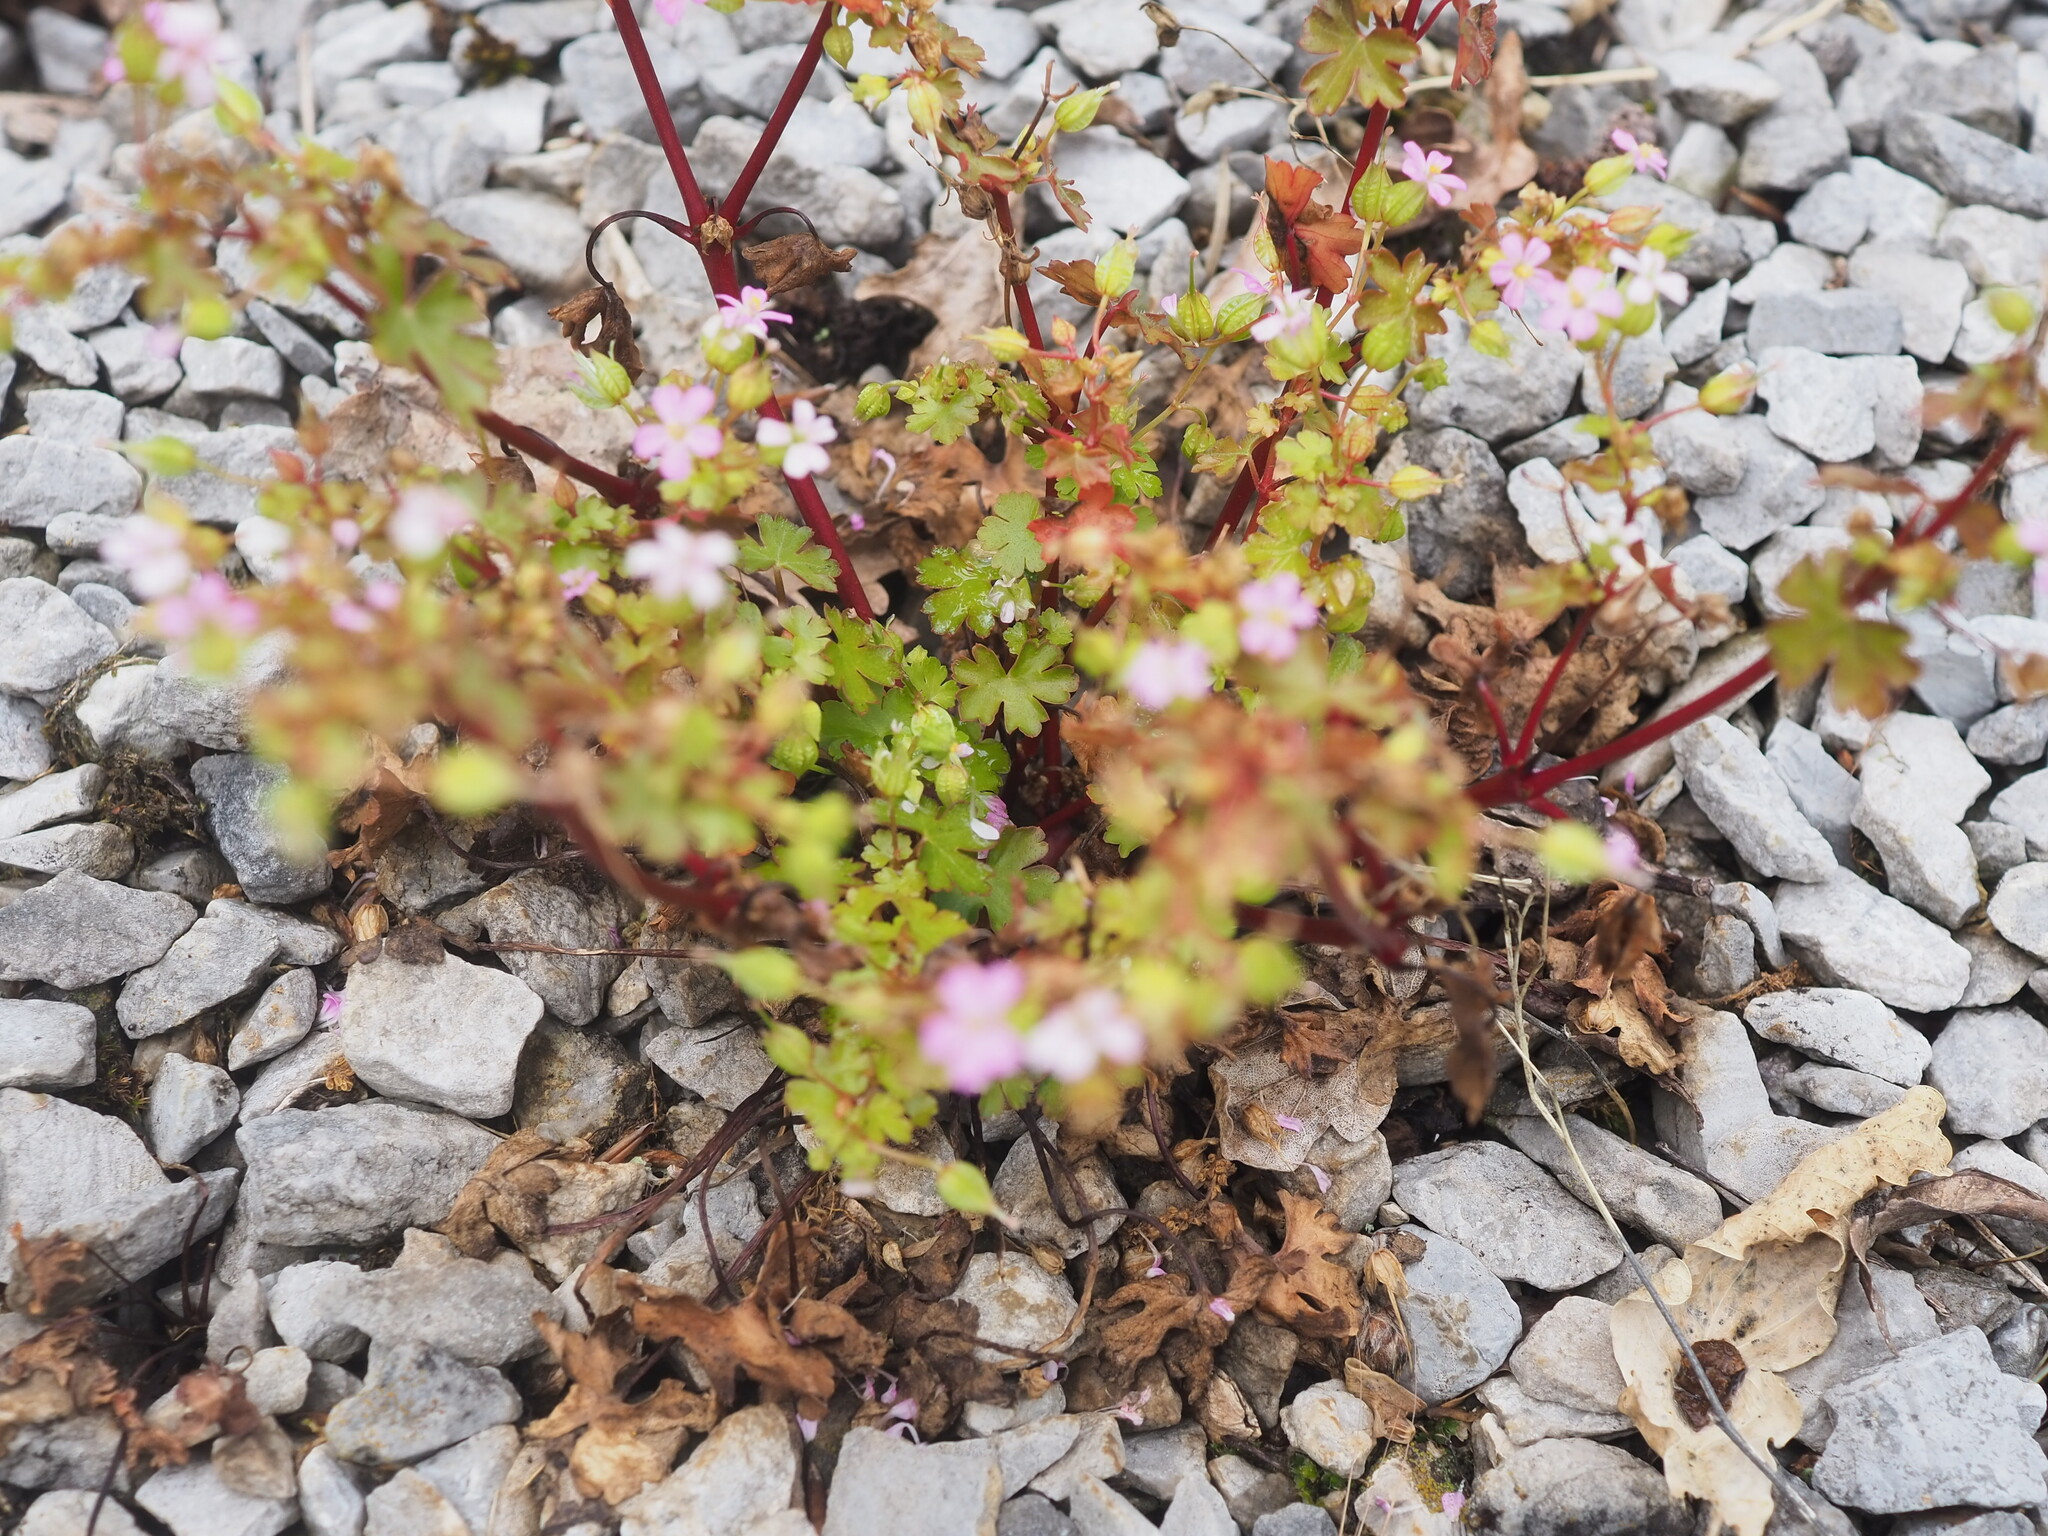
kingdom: Plantae
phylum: Tracheophyta
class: Magnoliopsida
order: Geraniales
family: Geraniaceae
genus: Geranium
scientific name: Geranium lucidum
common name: Shining crane's-bill
